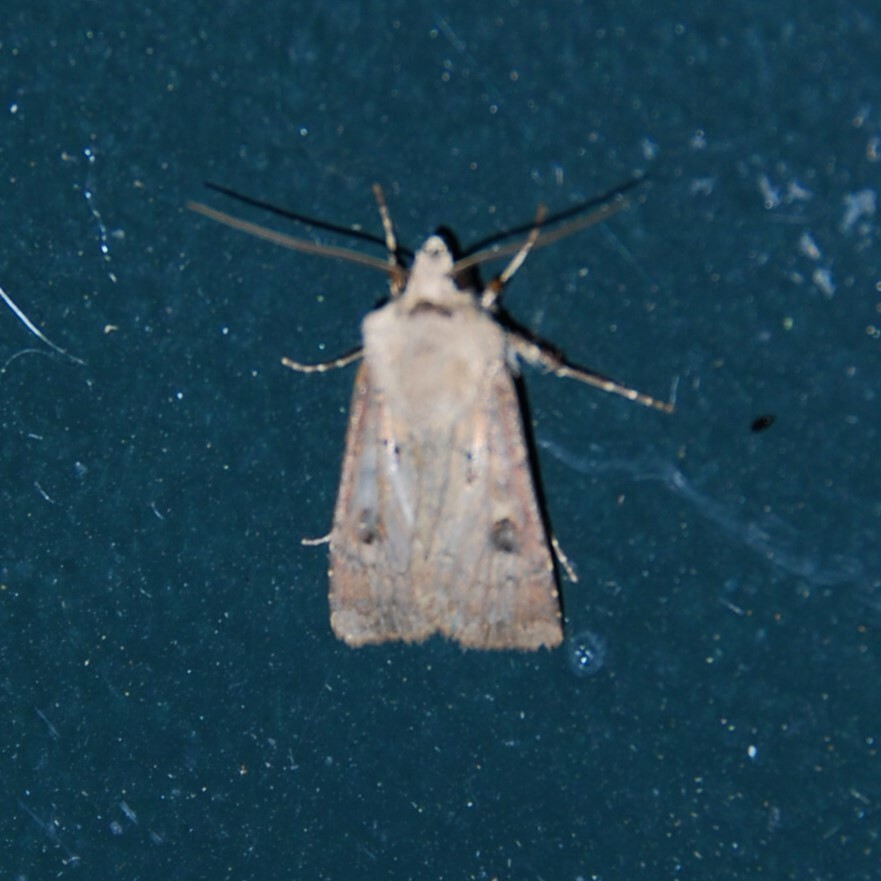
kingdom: Animalia
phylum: Arthropoda
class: Insecta
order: Lepidoptera
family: Noctuidae
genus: Agrotis
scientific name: Agrotis exclamationis
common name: Heart and dart
